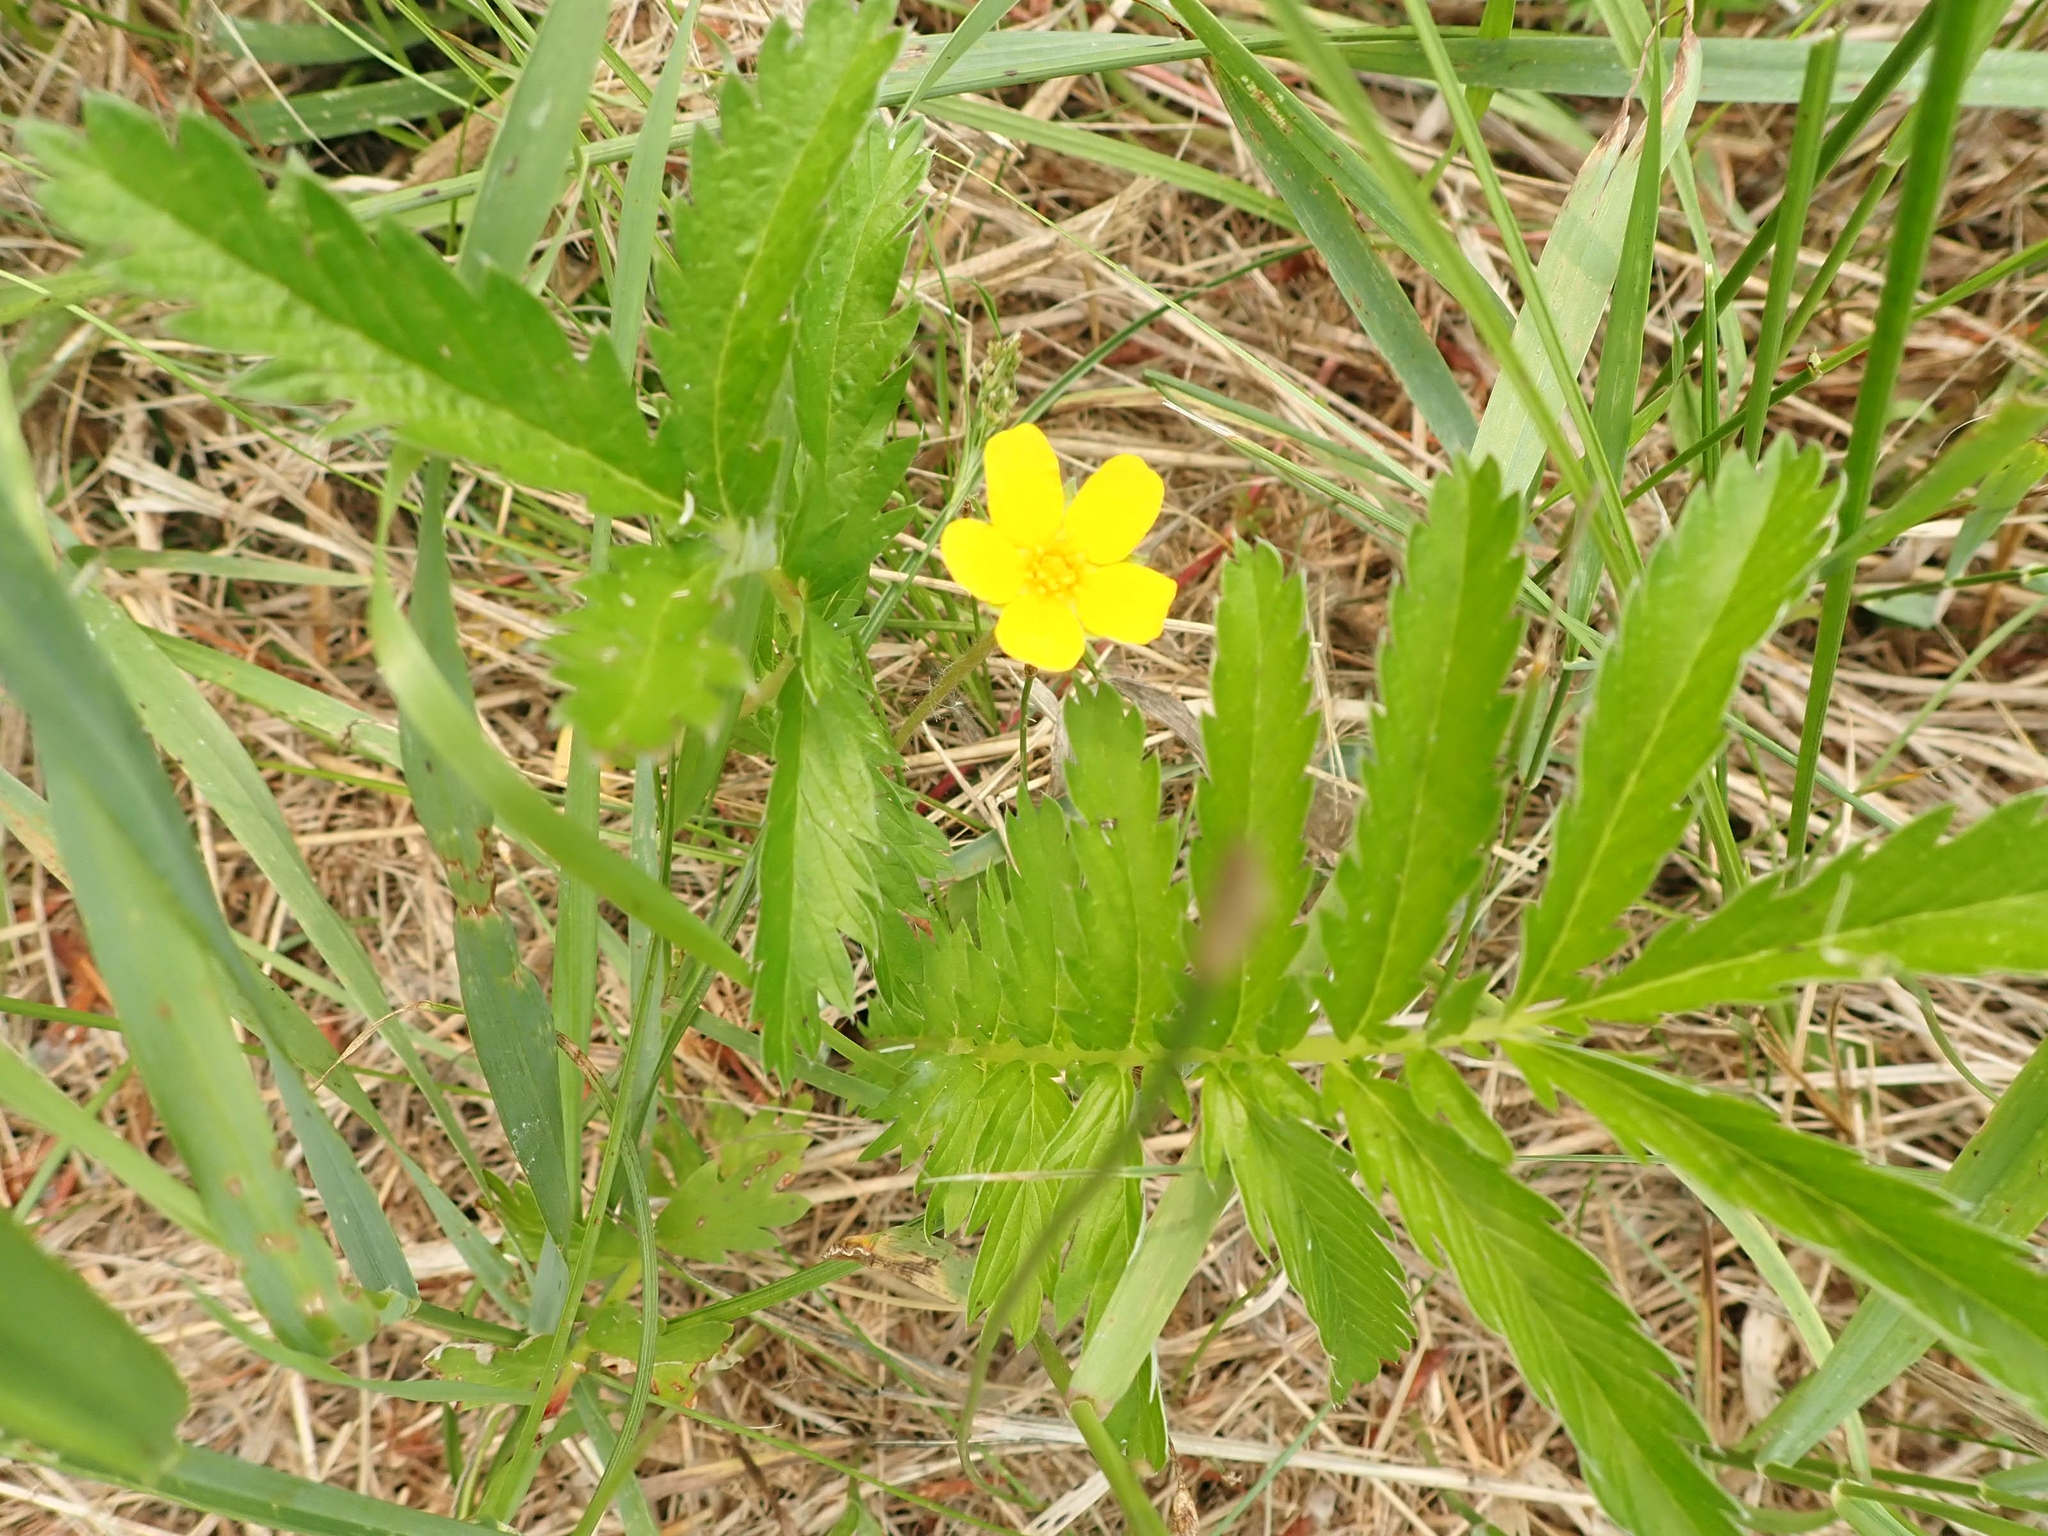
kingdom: Plantae
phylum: Tracheophyta
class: Magnoliopsida
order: Rosales
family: Rosaceae
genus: Argentina
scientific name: Argentina anserina
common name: Common silverweed
